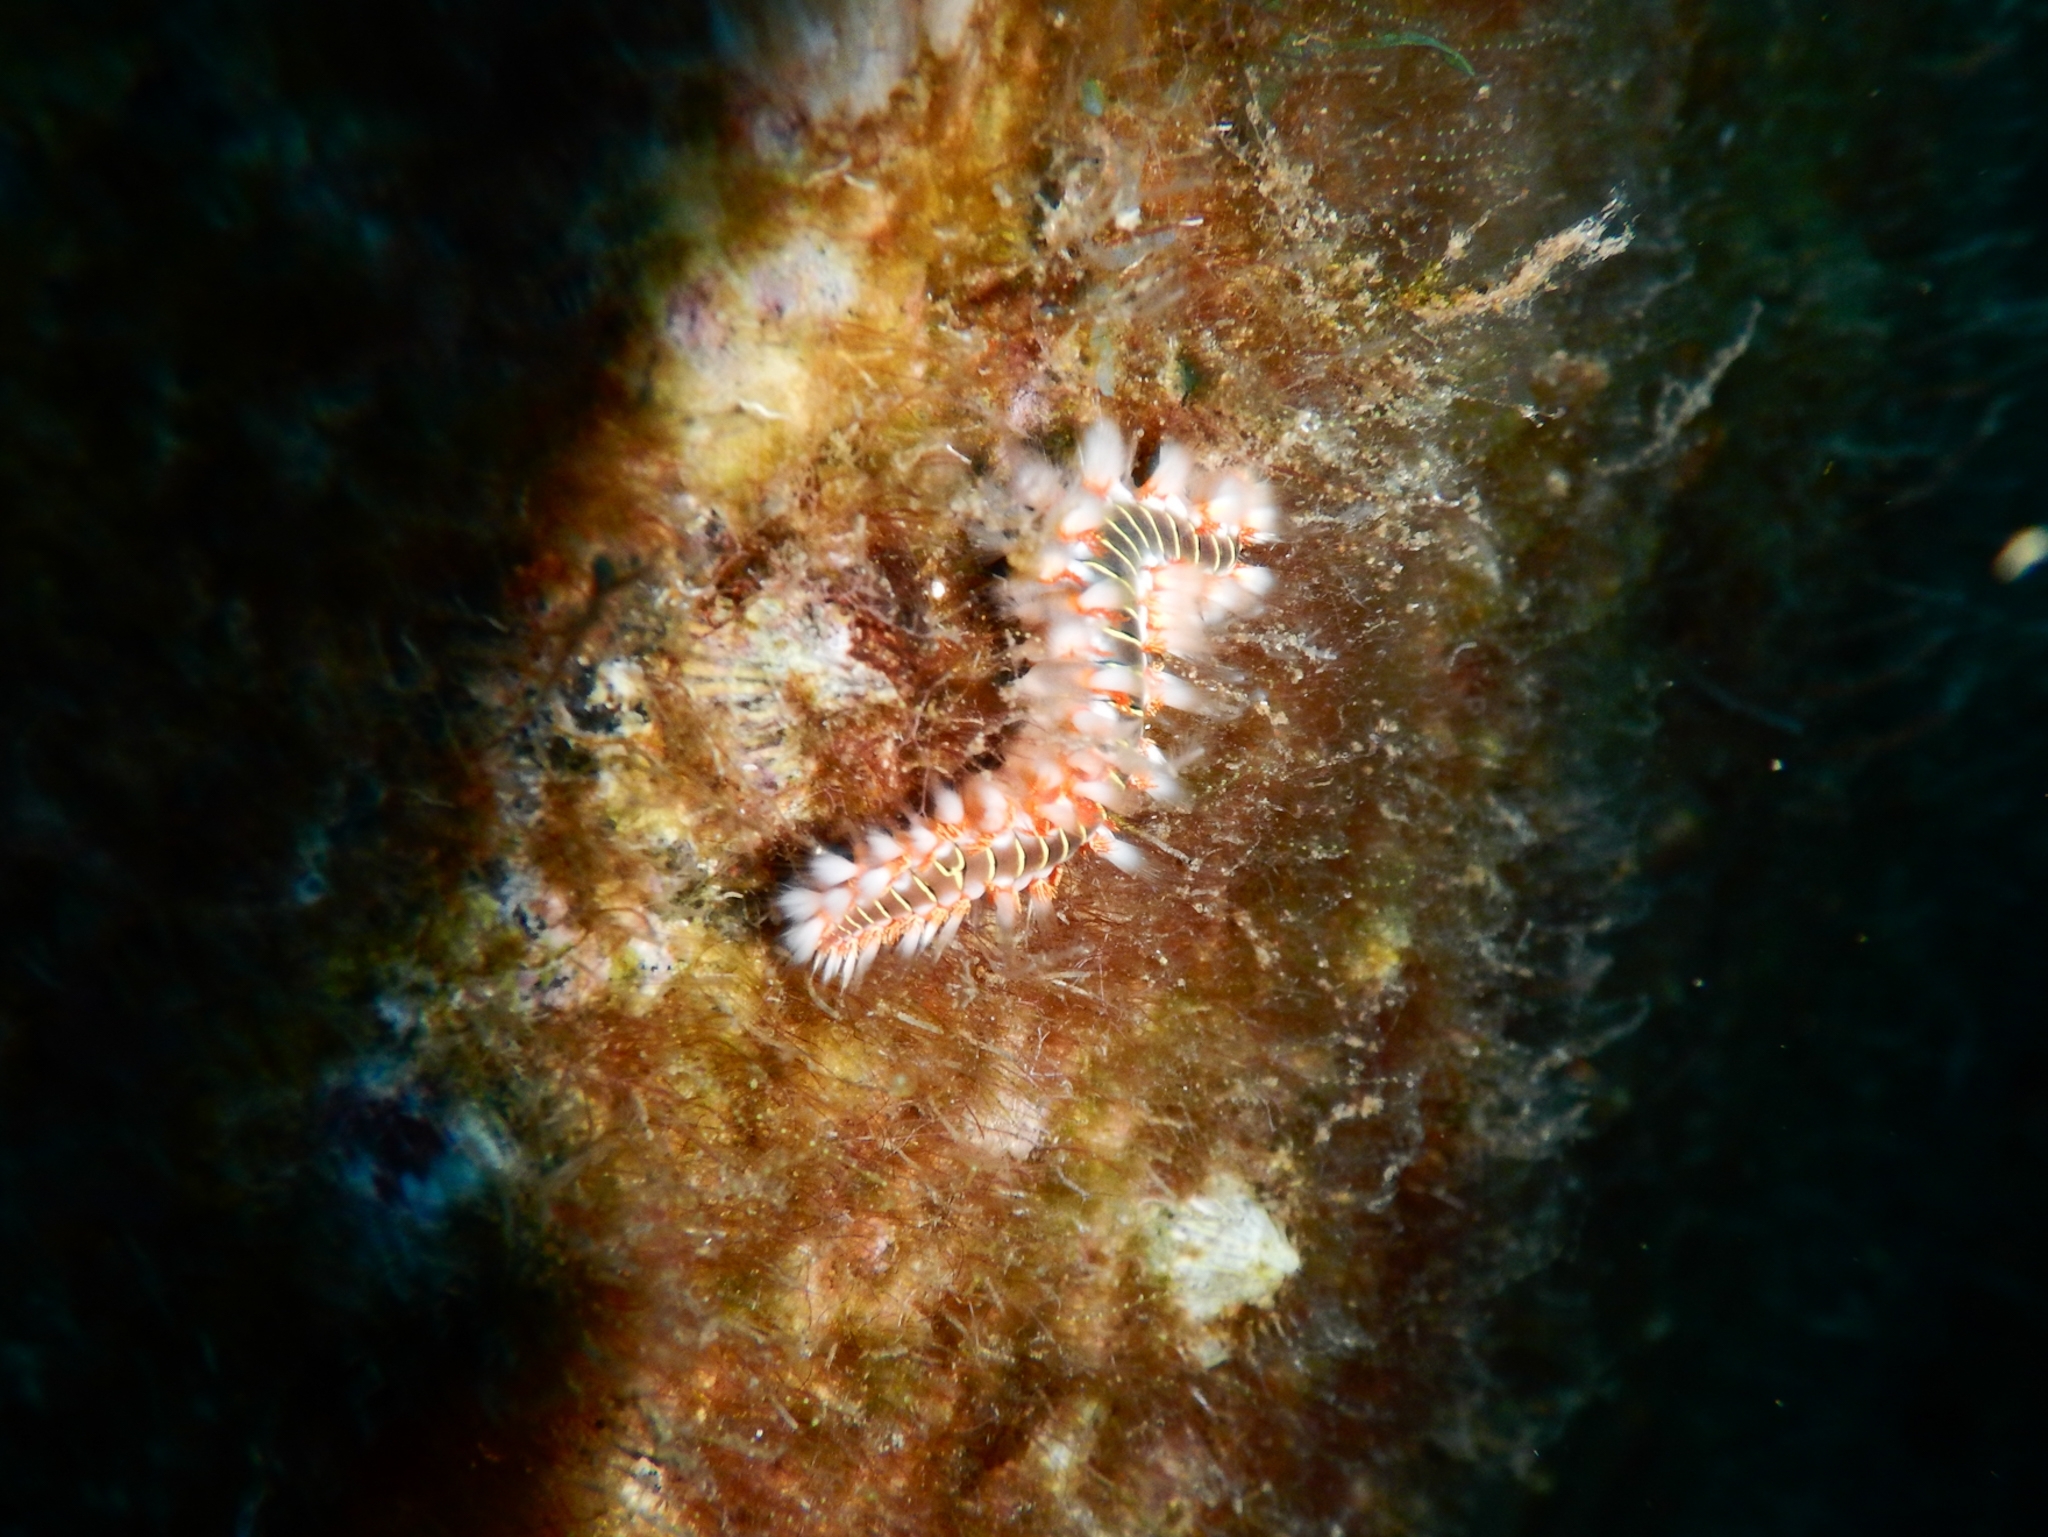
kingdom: Animalia
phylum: Annelida
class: Polychaeta
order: Amphinomida
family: Amphinomidae
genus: Hermodice
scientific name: Hermodice carunculata
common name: Bearded fireworm
